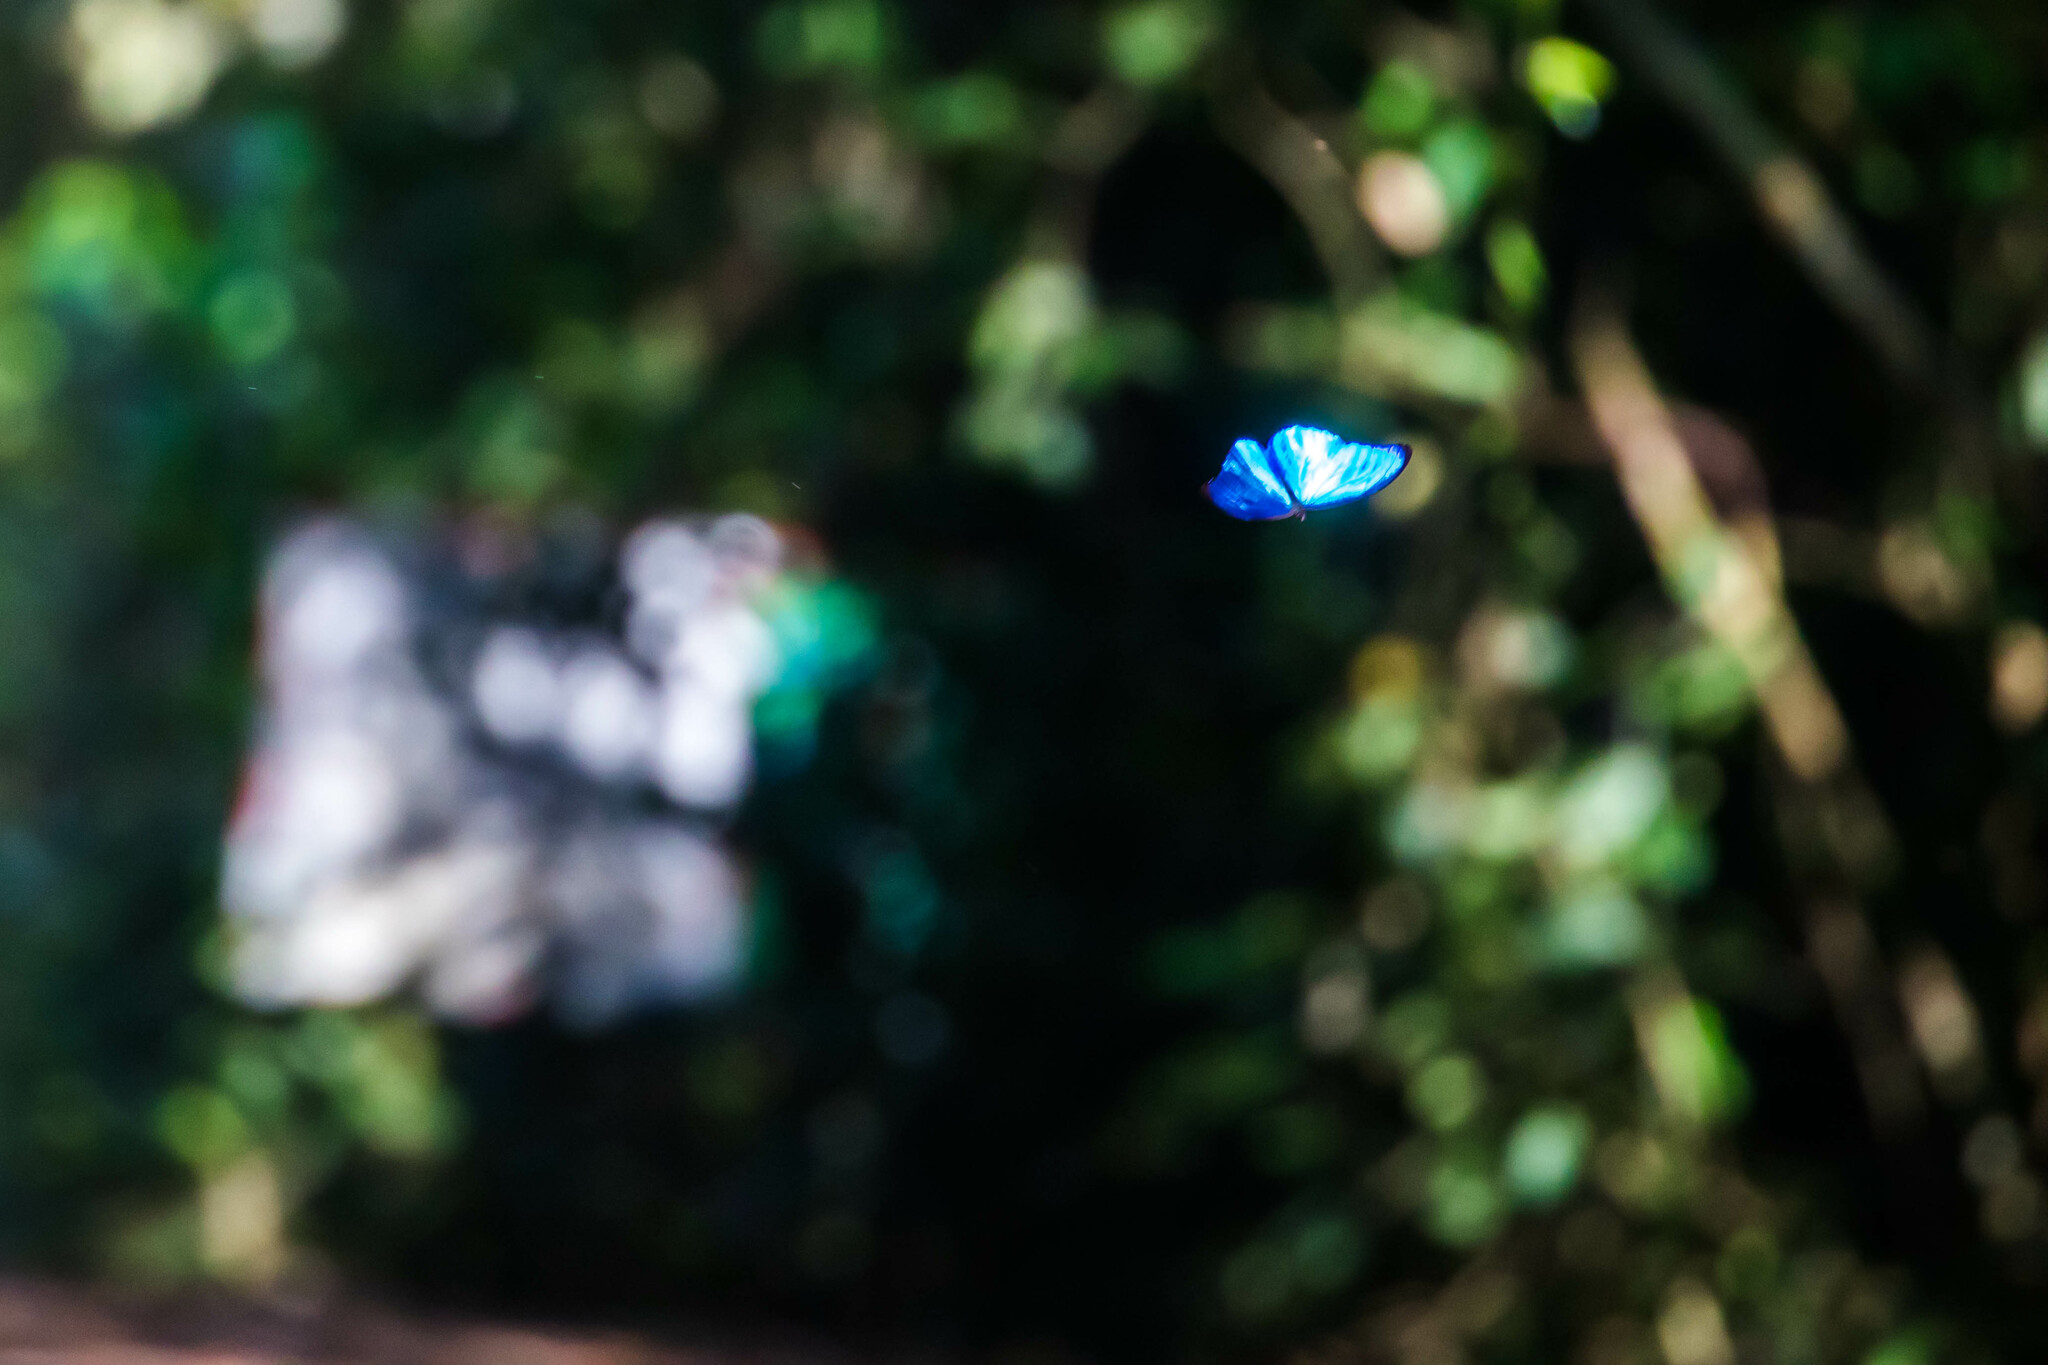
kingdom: Animalia
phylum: Arthropoda
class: Insecta
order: Lepidoptera
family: Nymphalidae
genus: Morpho
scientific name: Morpho amathonte
